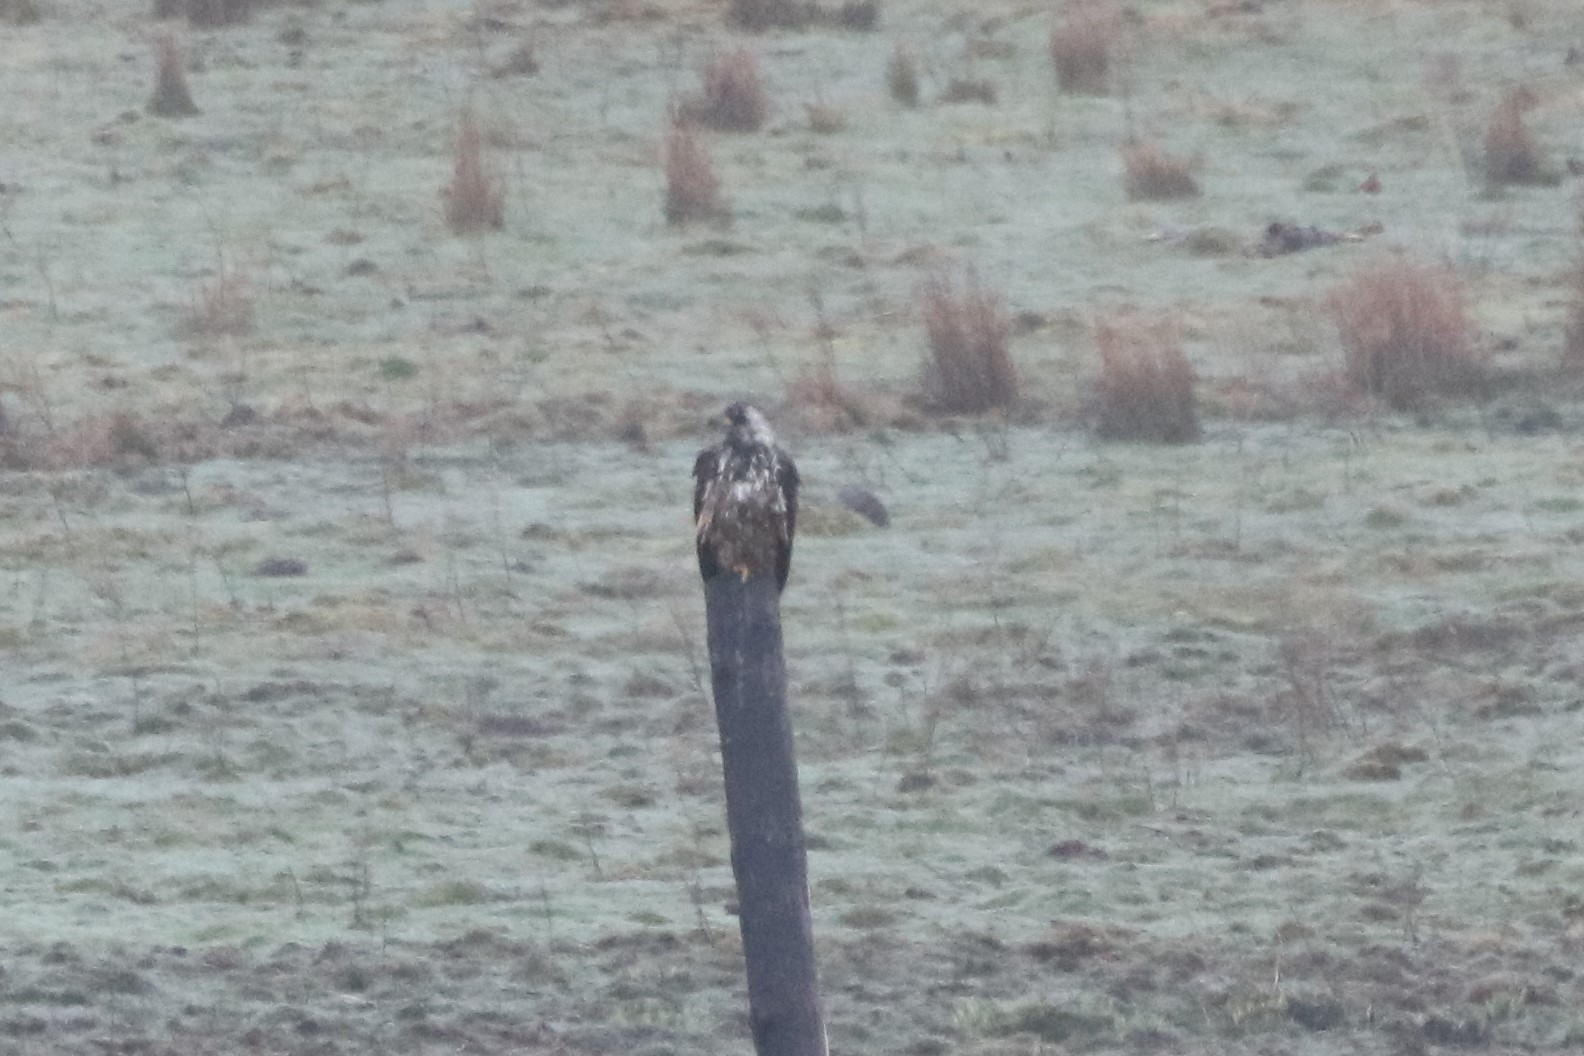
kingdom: Animalia
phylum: Chordata
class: Aves
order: Accipitriformes
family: Accipitridae
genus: Haliaeetus
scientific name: Haliaeetus leucocephalus
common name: Bald eagle
